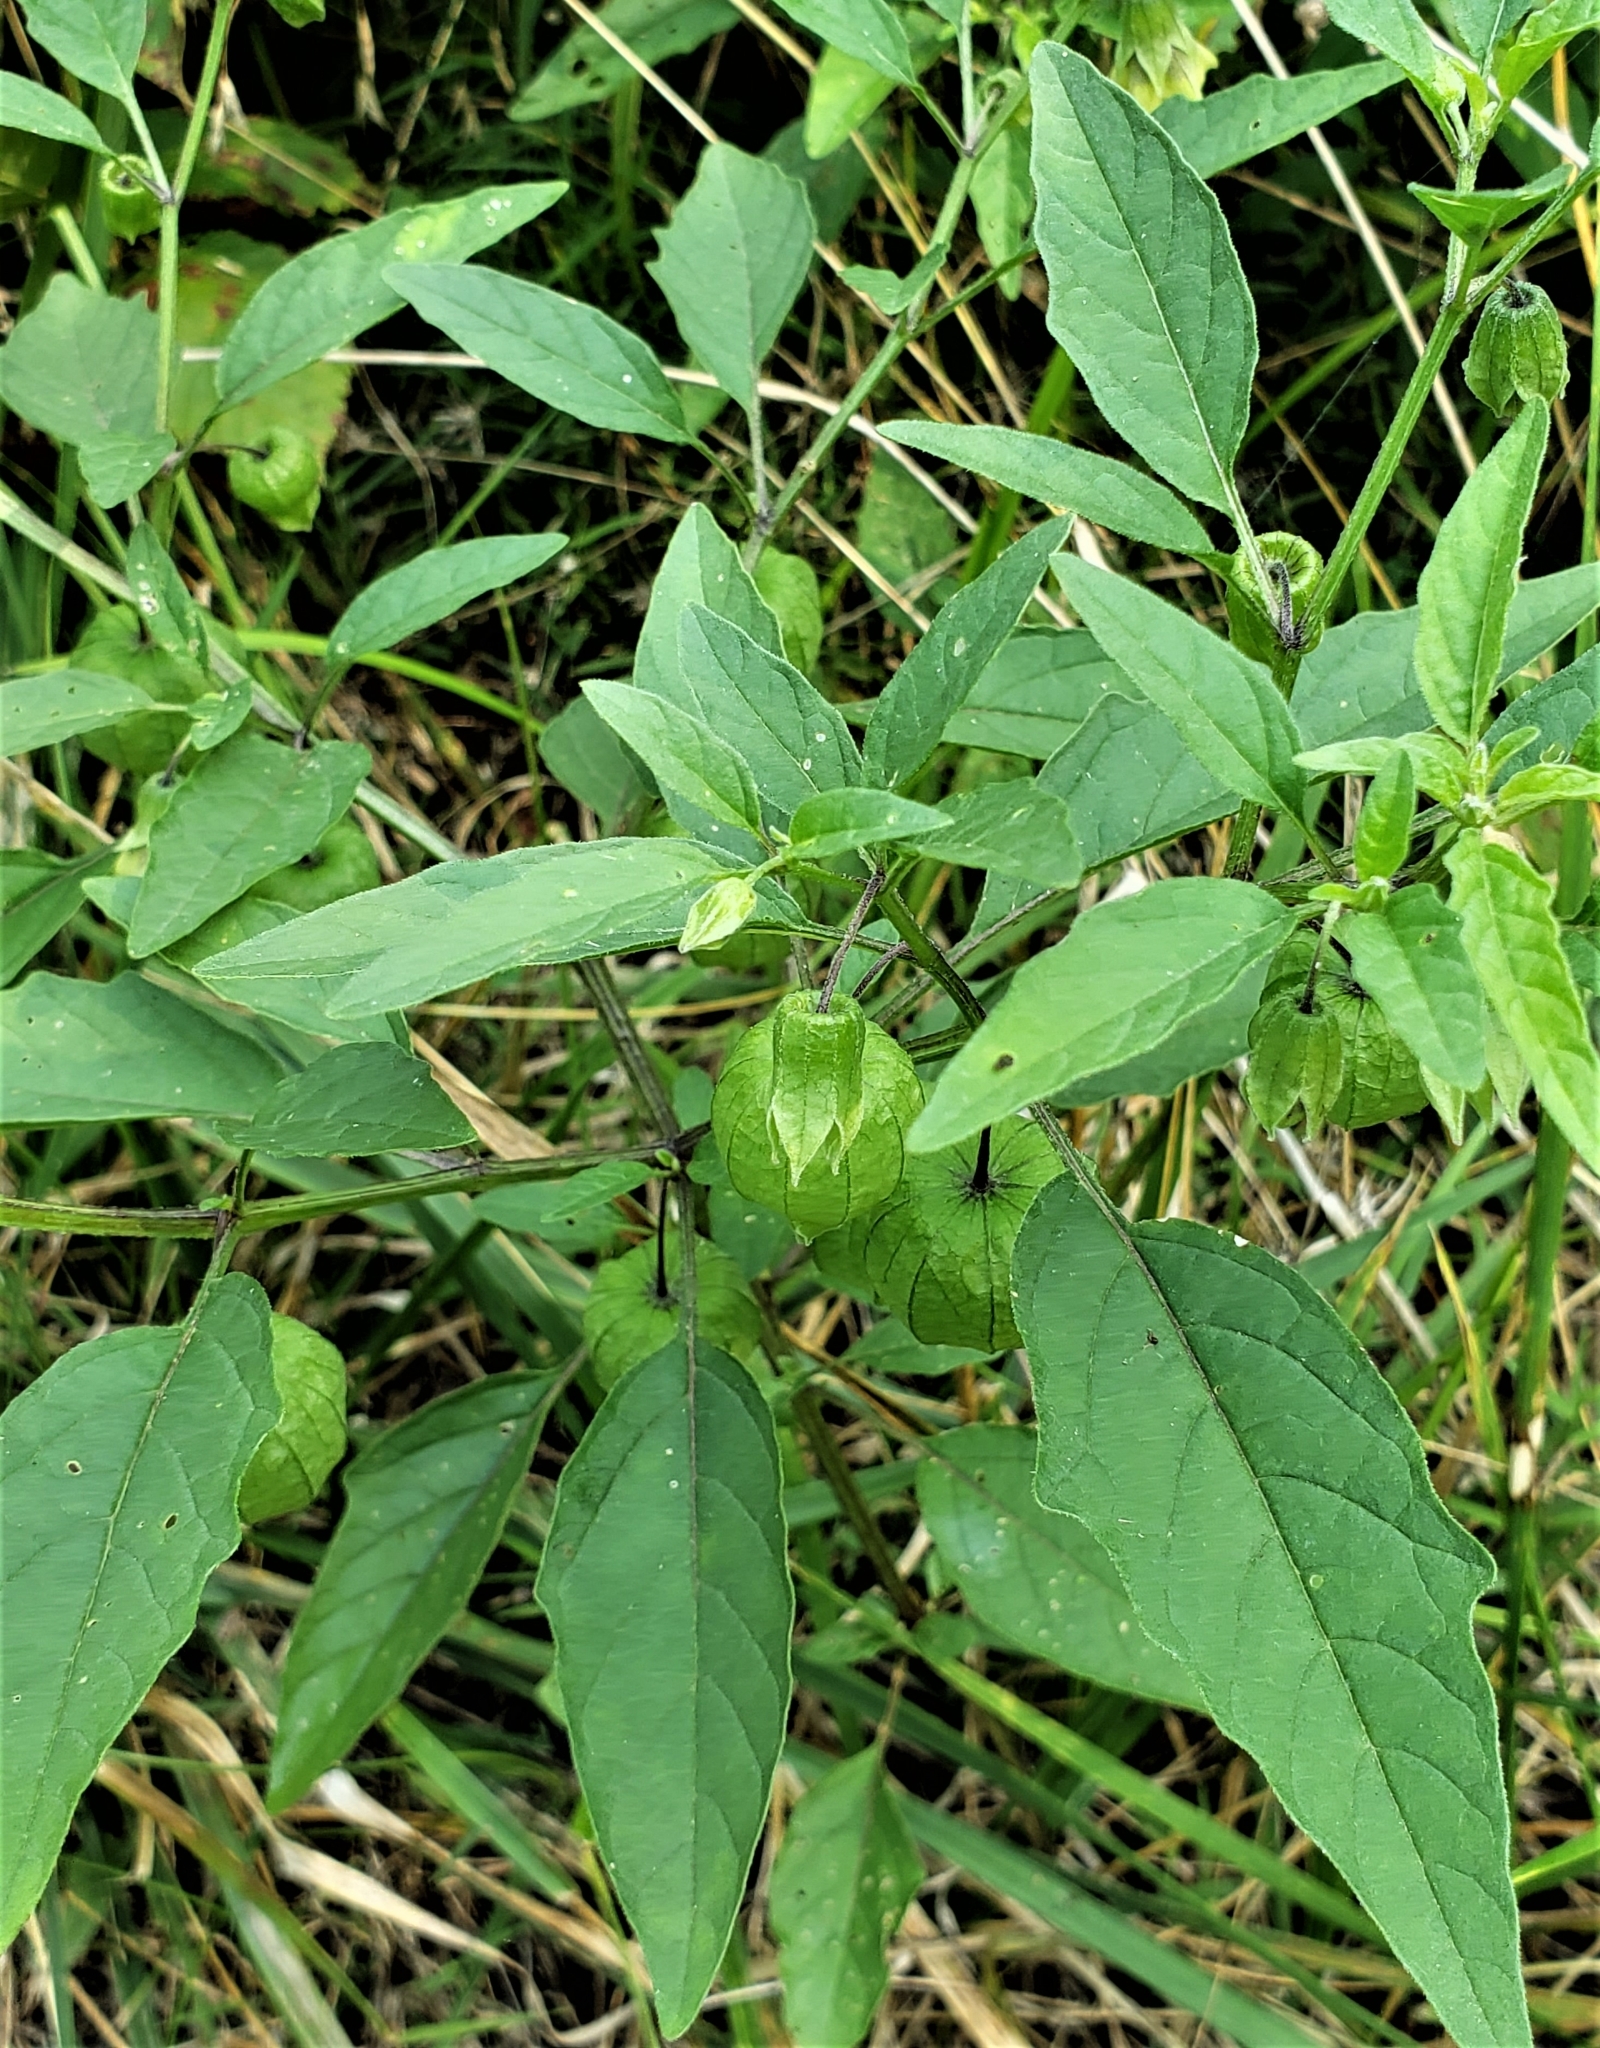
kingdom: Plantae
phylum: Tracheophyta
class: Magnoliopsida
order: Solanales
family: Solanaceae
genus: Physalis
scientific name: Physalis longifolia
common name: Common ground-cherry
